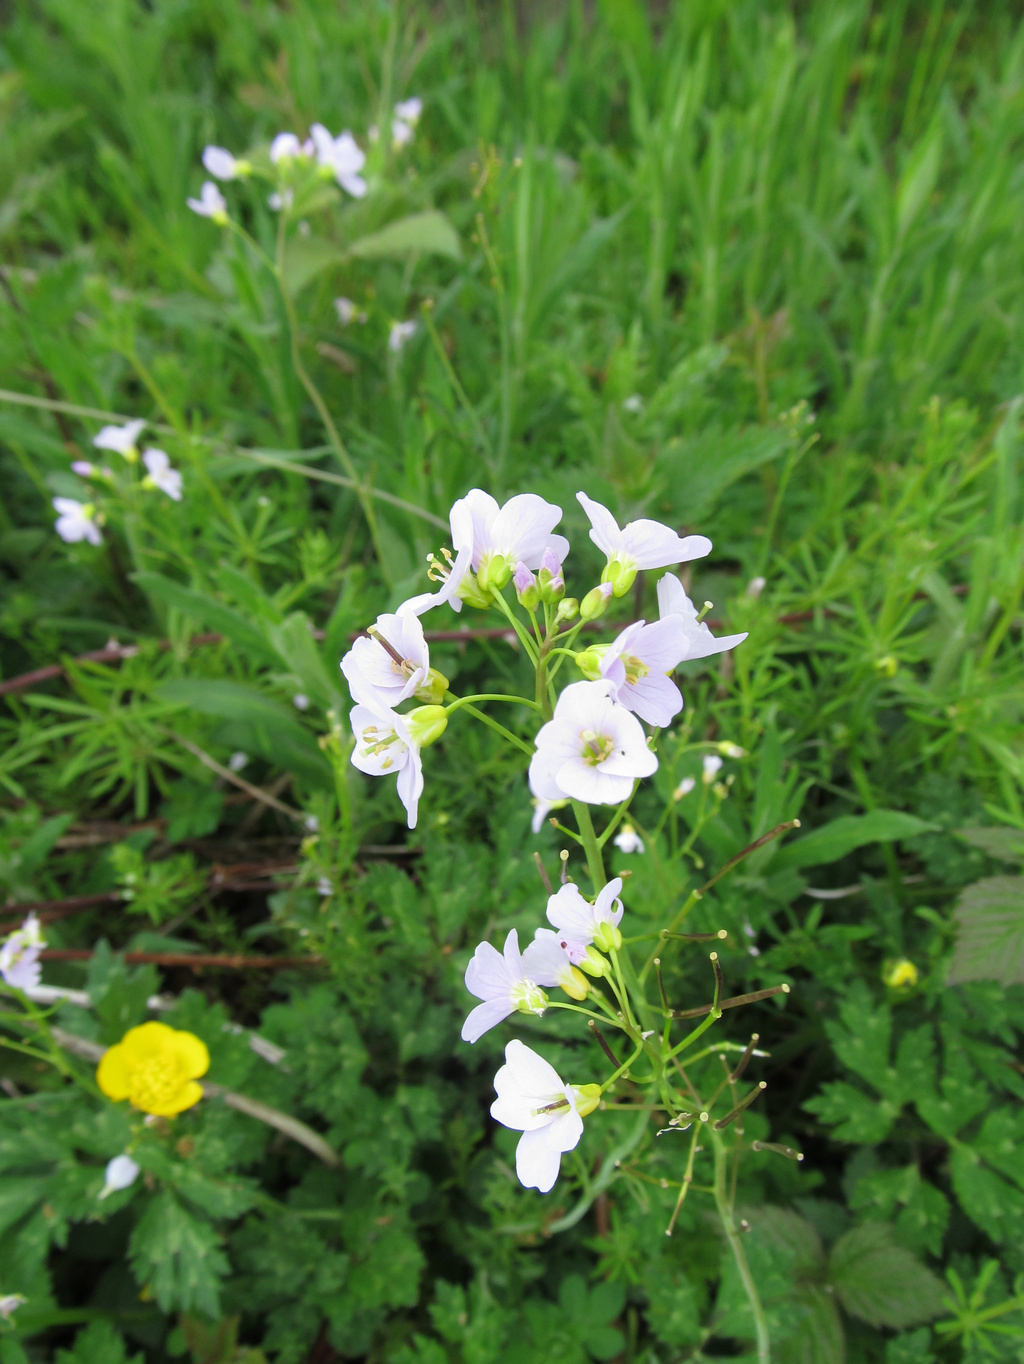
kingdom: Plantae
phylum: Tracheophyta
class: Magnoliopsida
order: Brassicales
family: Brassicaceae
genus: Cardamine
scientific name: Cardamine pratensis
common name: Cuckoo flower
